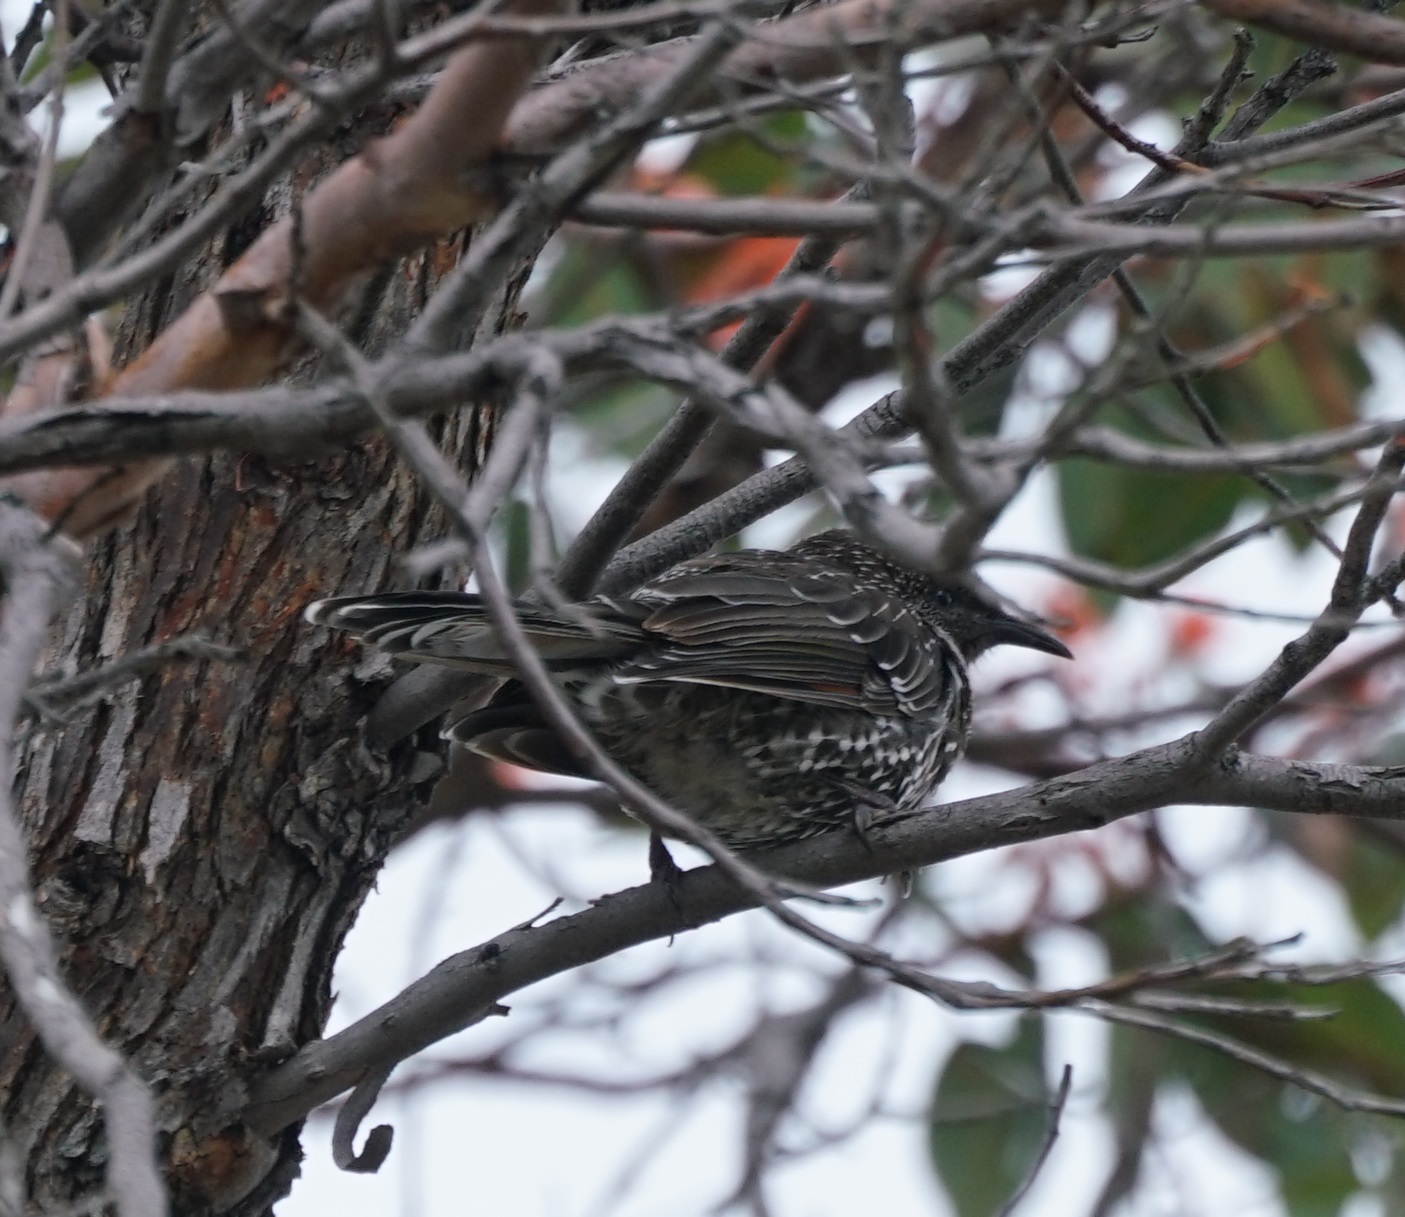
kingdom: Animalia
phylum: Chordata
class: Aves
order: Passeriformes
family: Meliphagidae
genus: Anthochaera
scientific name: Anthochaera chrysoptera
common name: Little wattlebird
